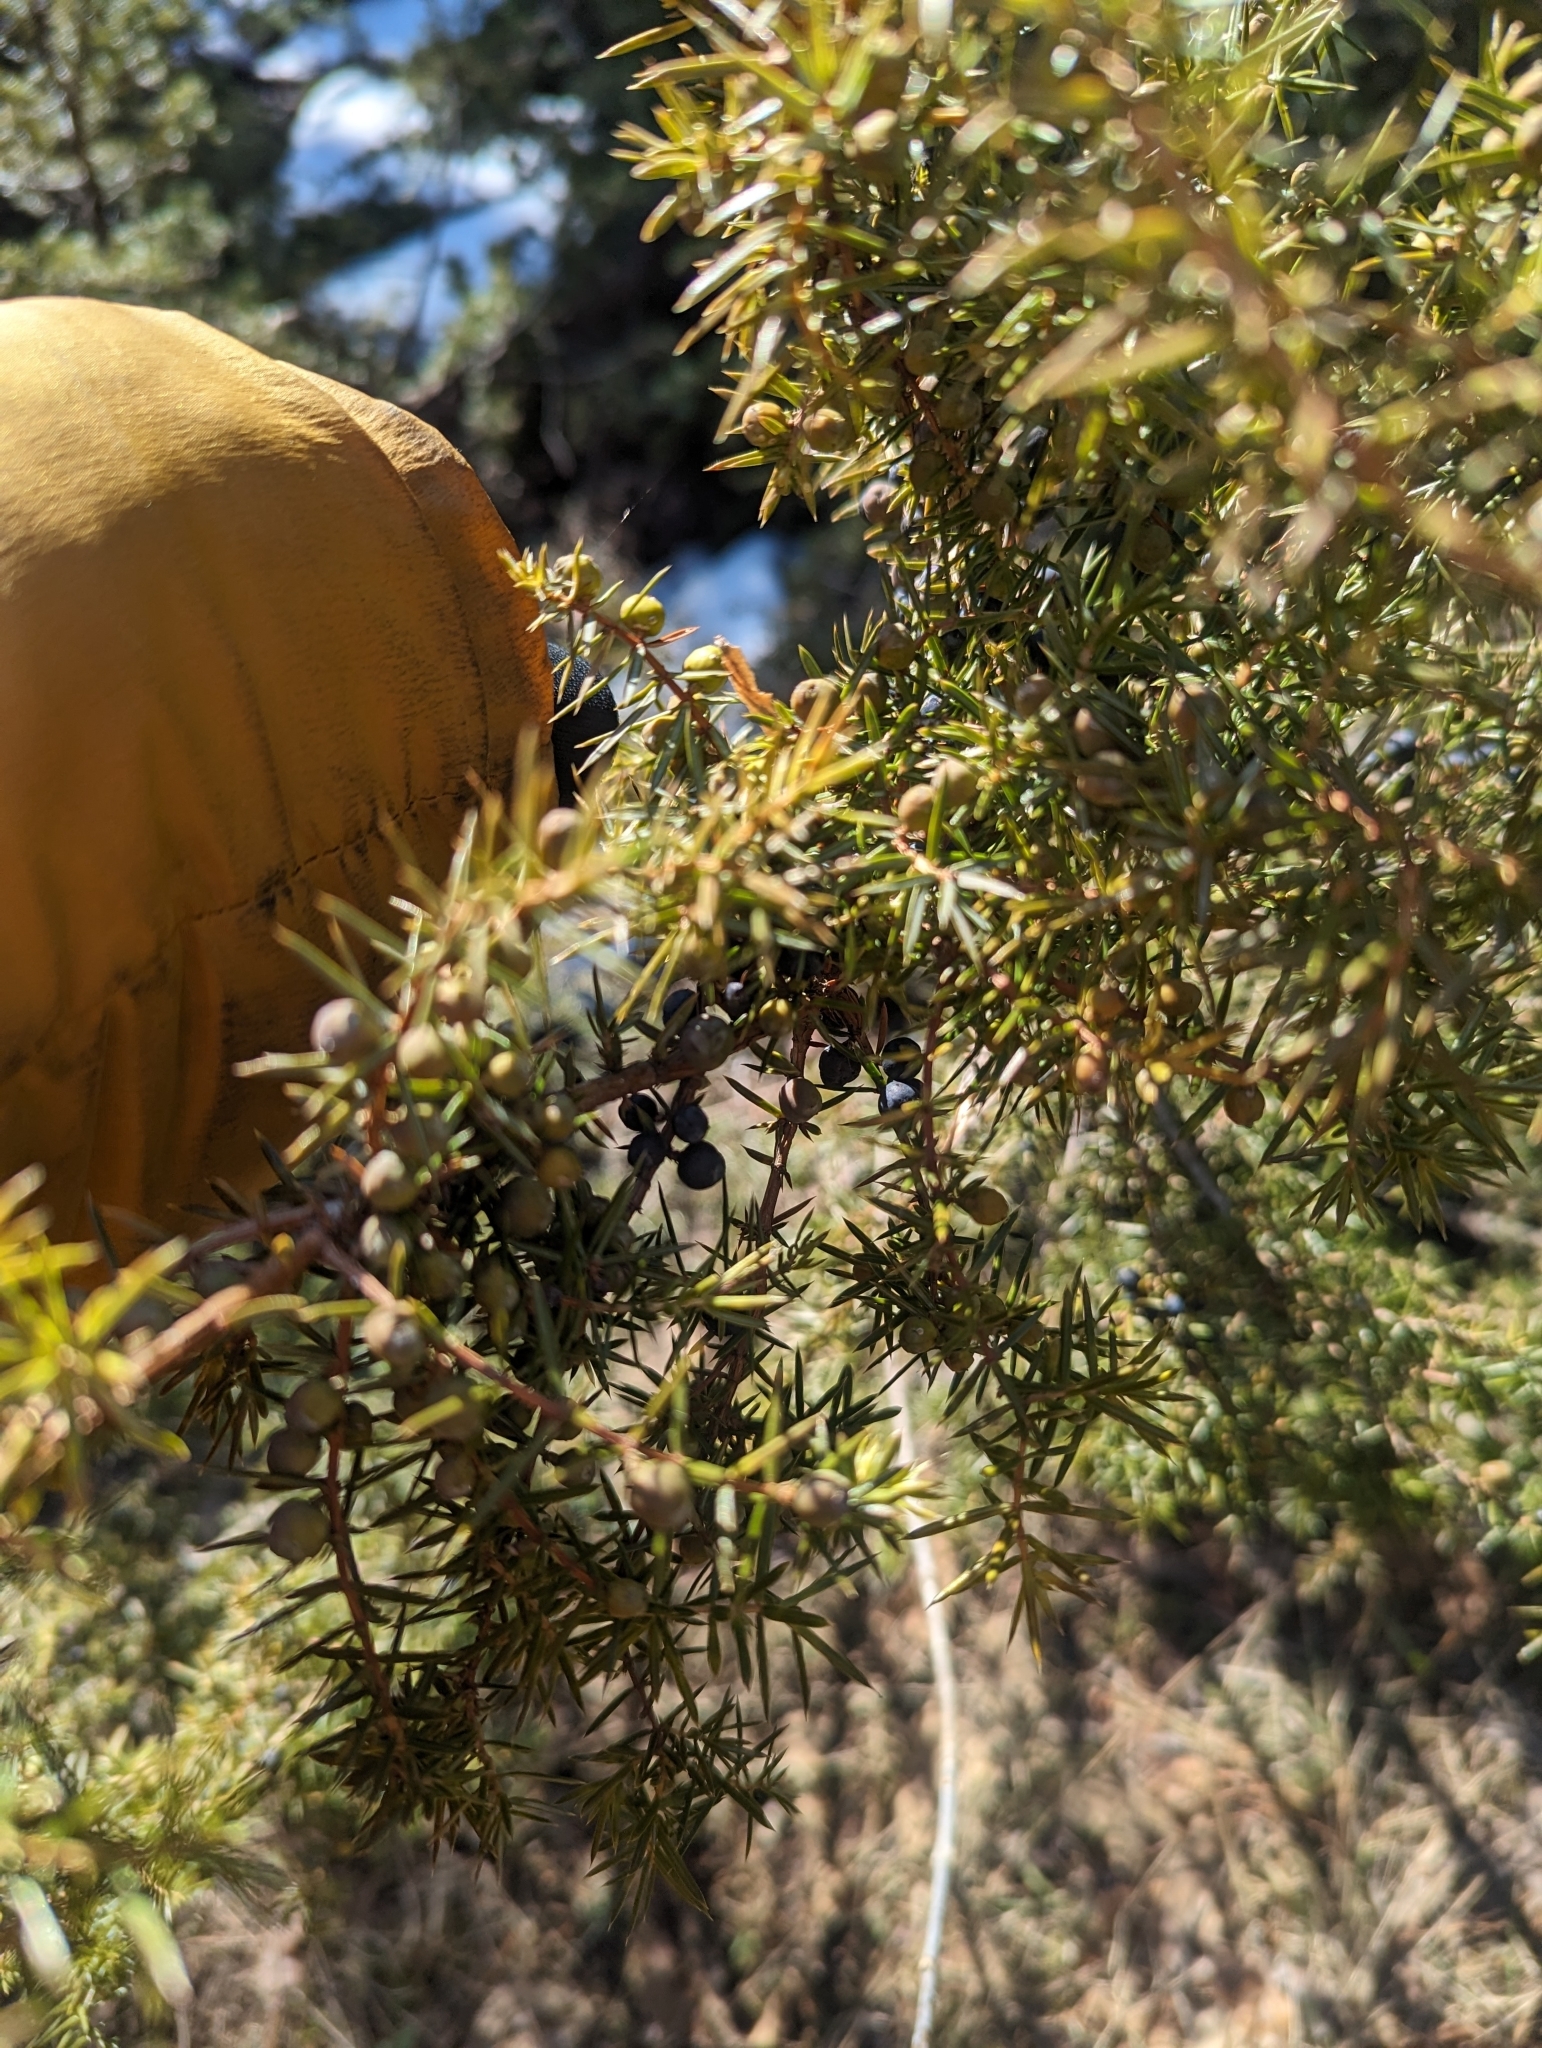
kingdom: Plantae
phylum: Tracheophyta
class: Pinopsida
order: Pinales
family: Cupressaceae
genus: Juniperus
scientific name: Juniperus communis
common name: Common juniper
